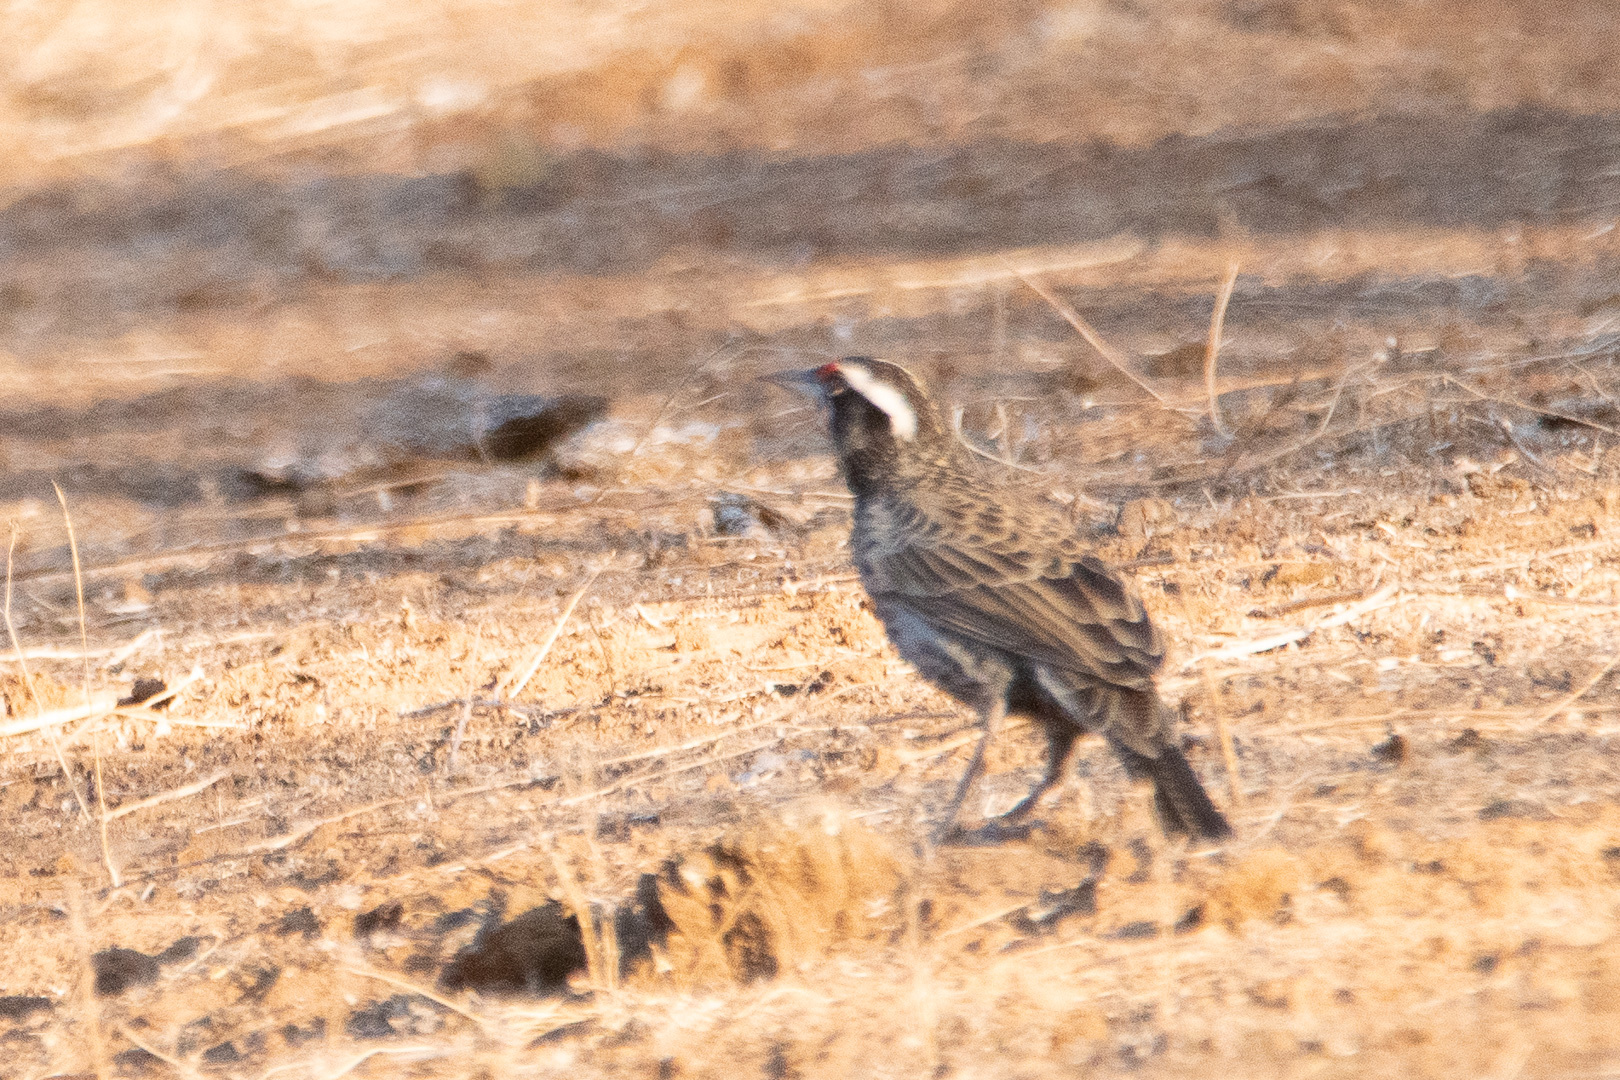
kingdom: Animalia
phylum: Chordata
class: Aves
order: Passeriformes
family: Icteridae
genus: Sturnella
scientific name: Sturnella loyca
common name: Long-tailed meadowlark
